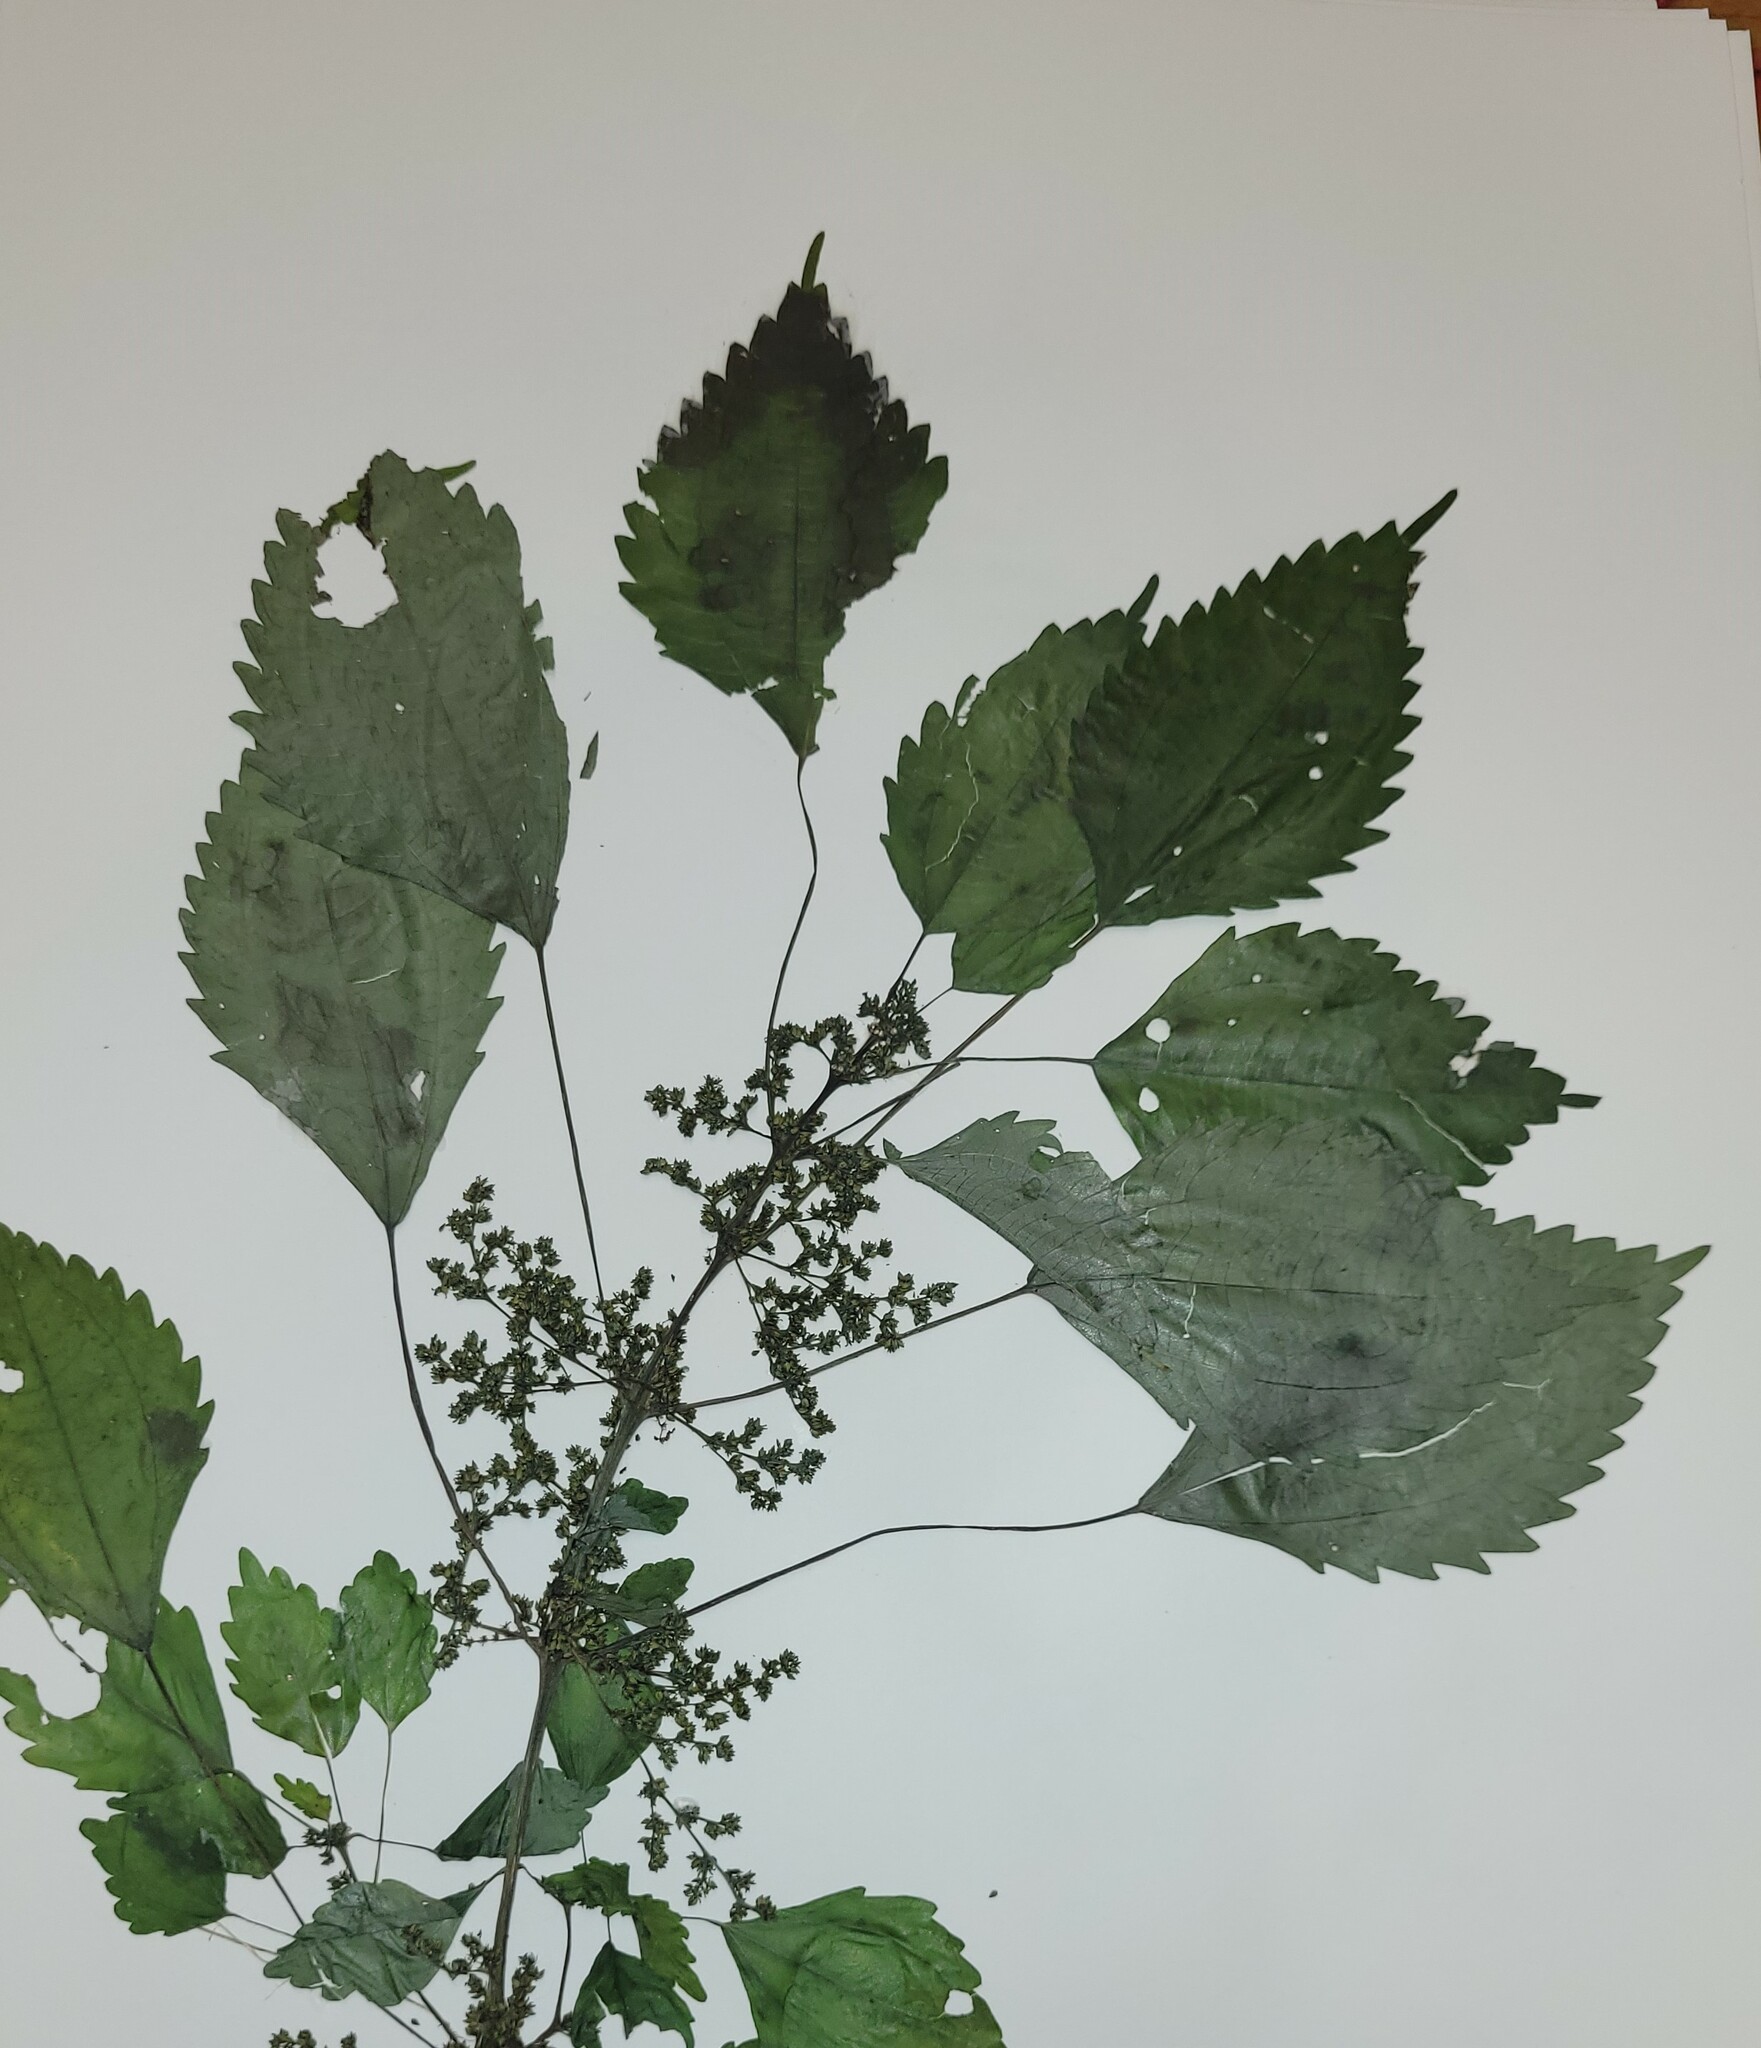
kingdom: Plantae
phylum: Tracheophyta
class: Magnoliopsida
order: Rosales
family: Urticaceae
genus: Pilea
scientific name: Pilea pumila
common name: Clearweed
